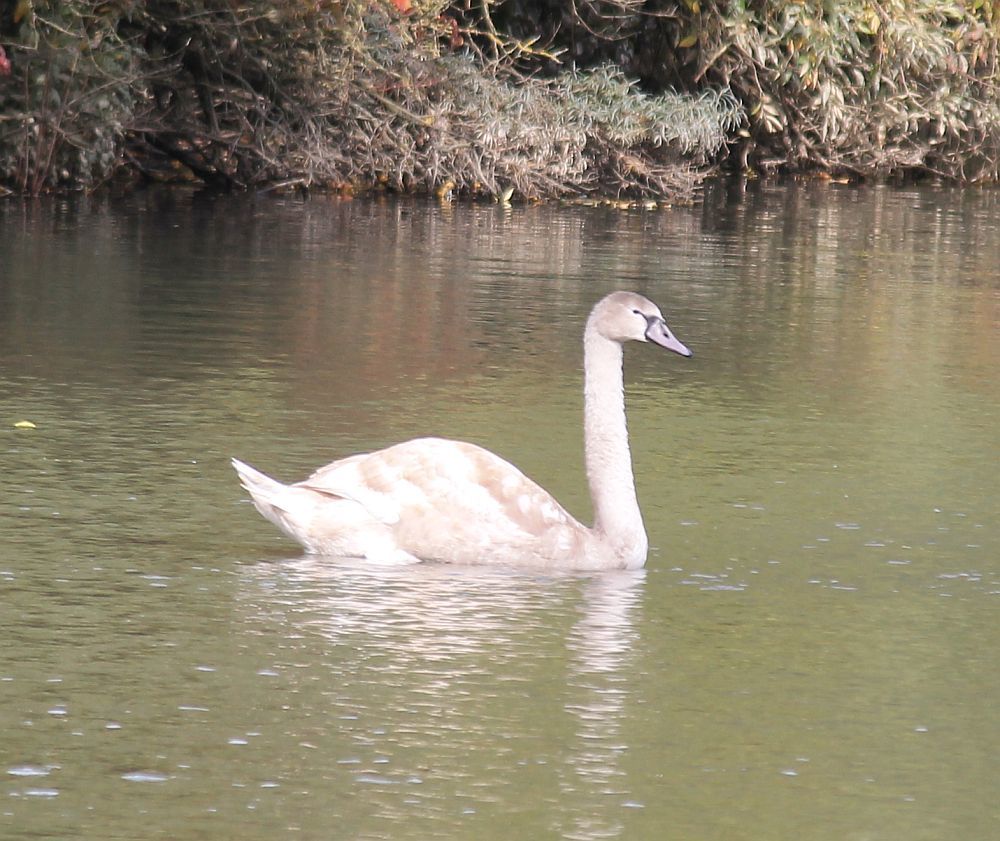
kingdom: Animalia
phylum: Chordata
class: Aves
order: Anseriformes
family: Anatidae
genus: Cygnus
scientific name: Cygnus olor
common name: Mute swan
